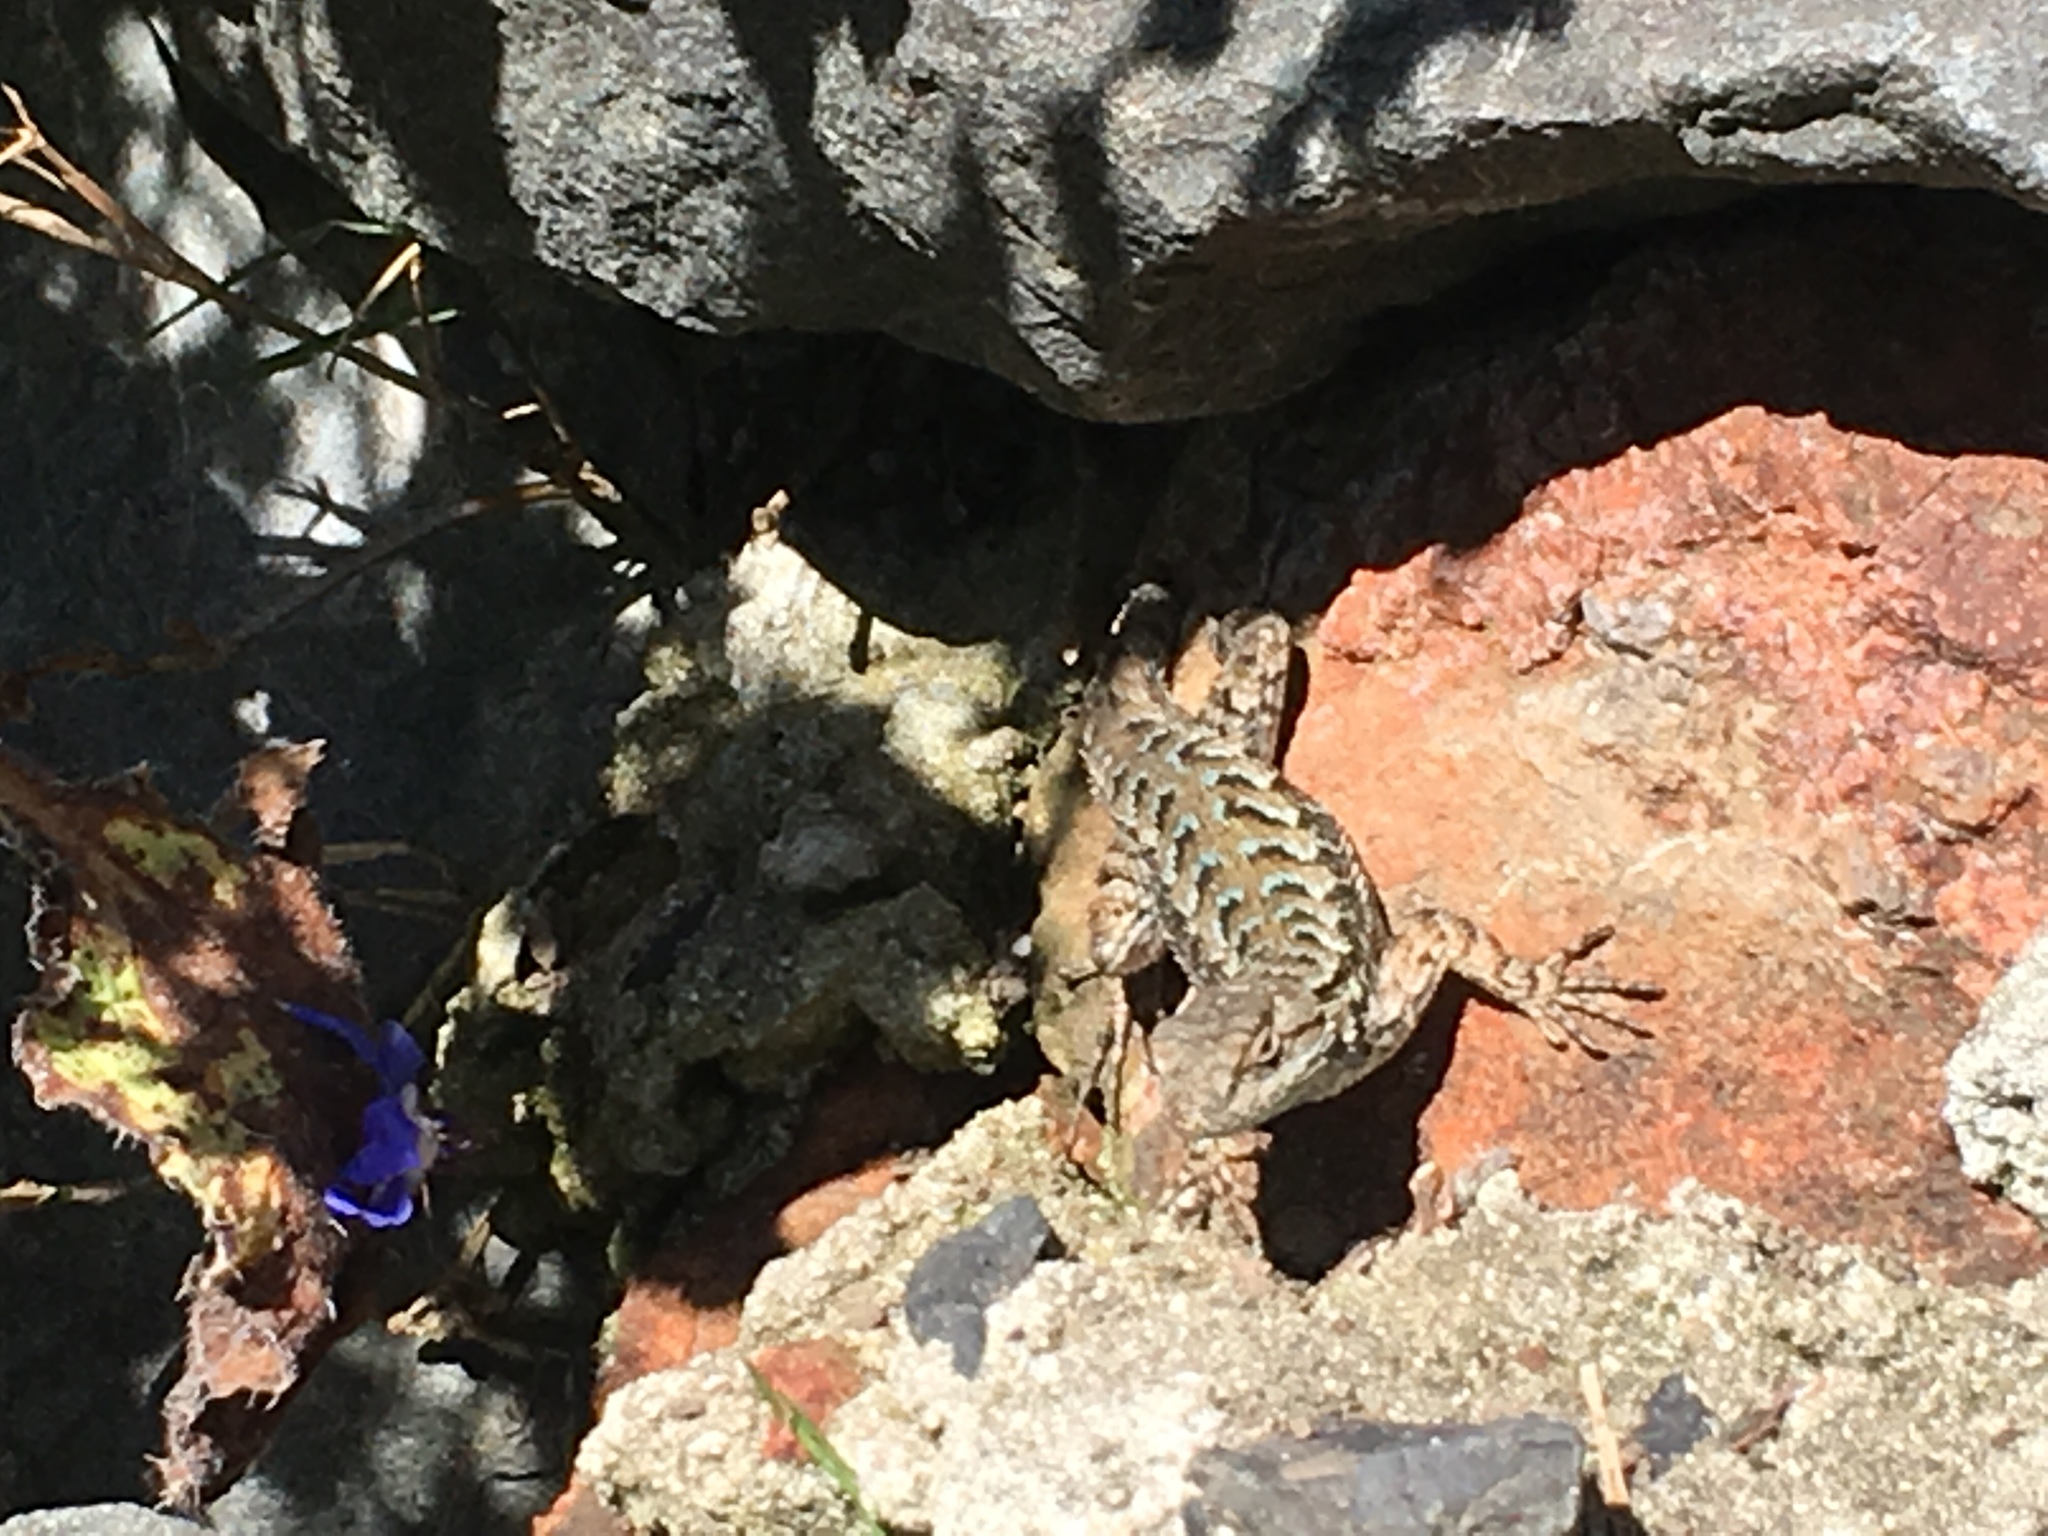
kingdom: Animalia
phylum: Chordata
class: Squamata
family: Phrynosomatidae
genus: Sceloporus
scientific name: Sceloporus occidentalis
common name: Western fence lizard
